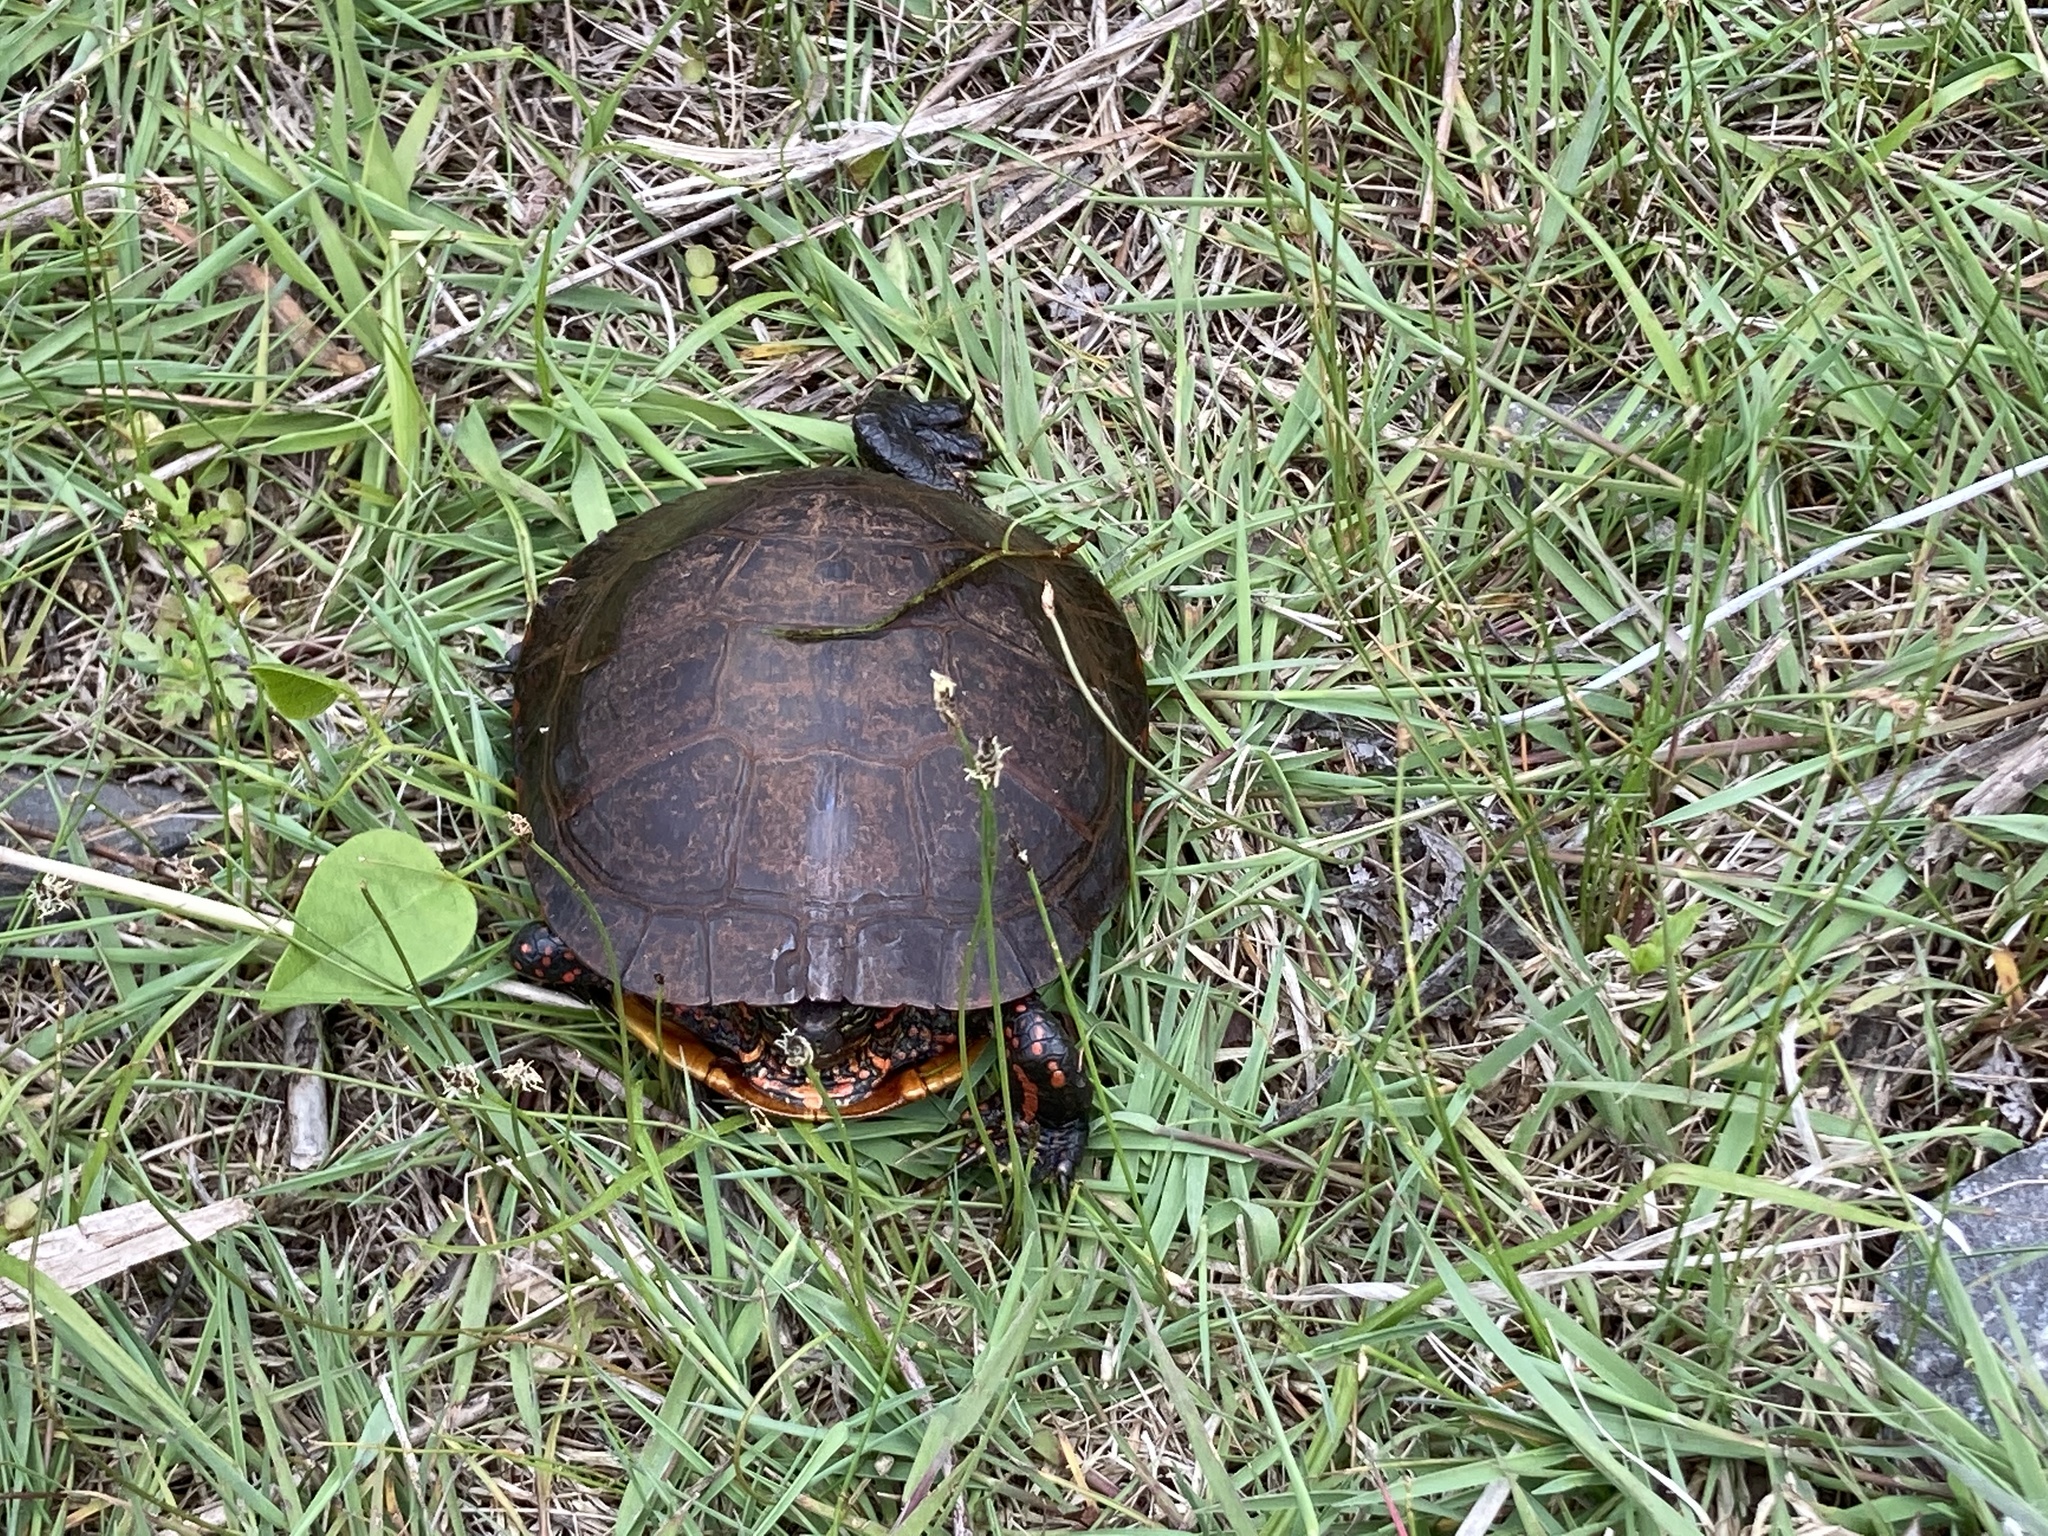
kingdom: Animalia
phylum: Chordata
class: Testudines
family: Emydidae
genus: Chrysemys
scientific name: Chrysemys picta
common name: Painted turtle
